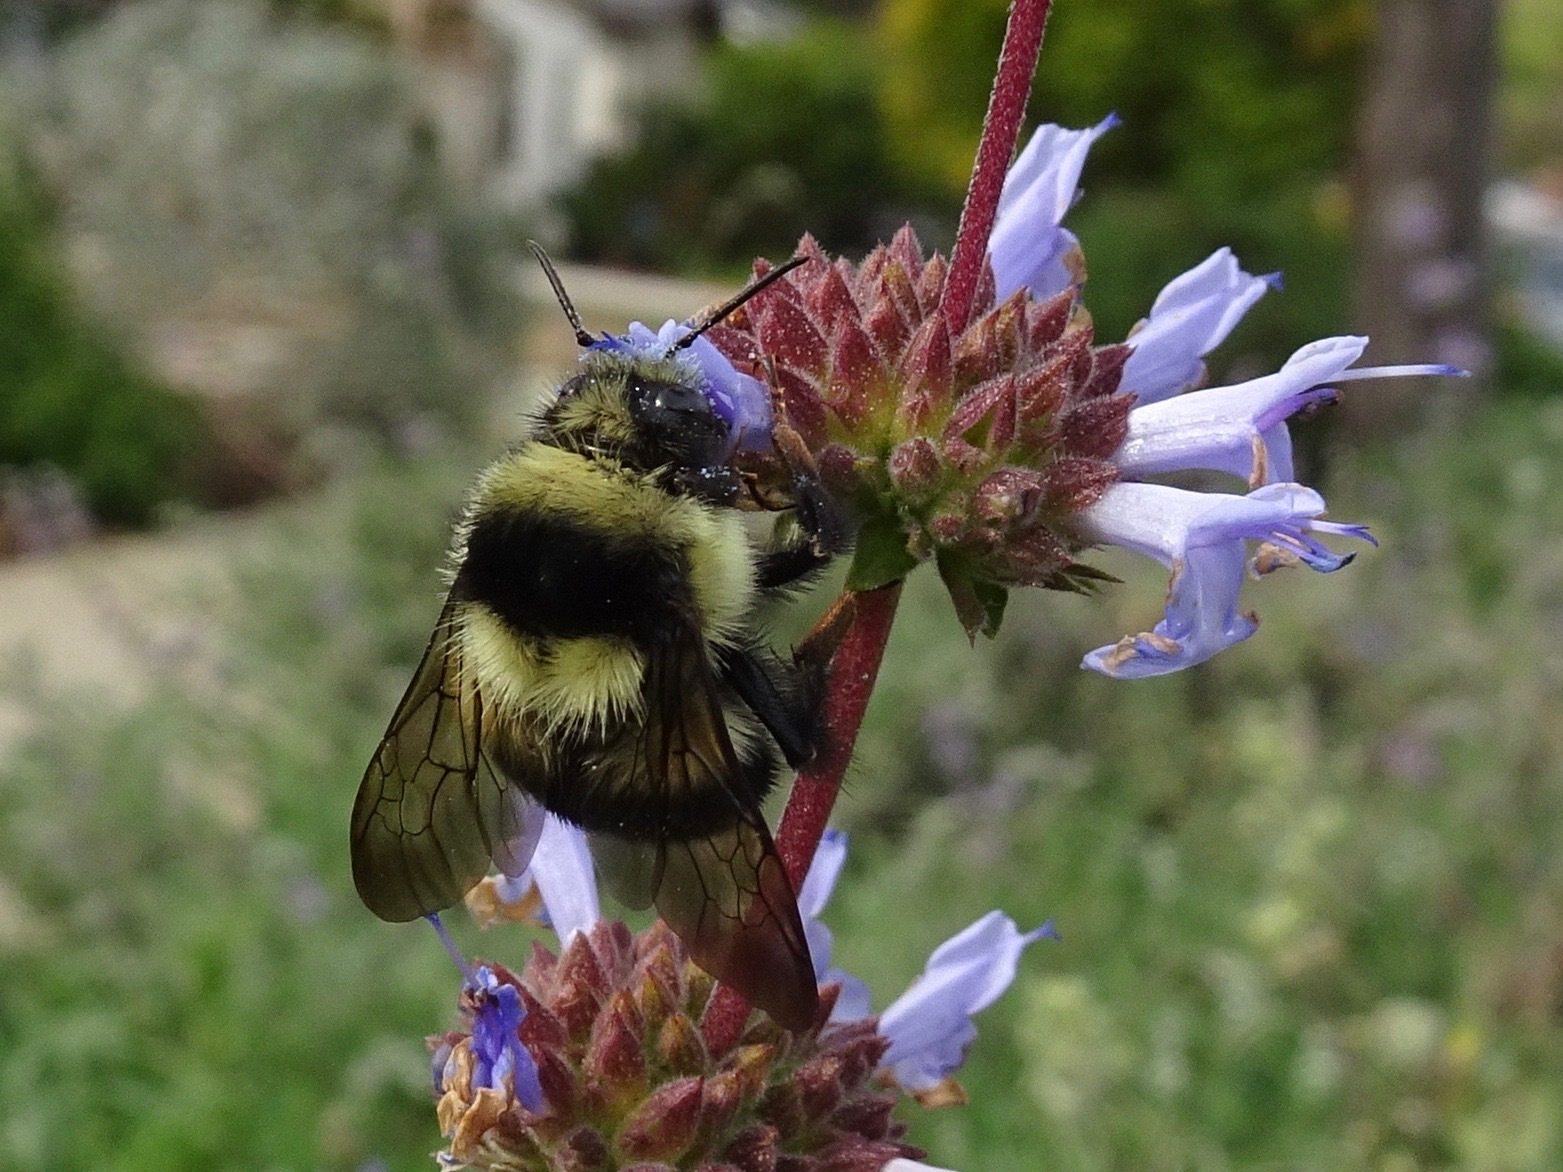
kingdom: Animalia
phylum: Arthropoda
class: Insecta
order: Hymenoptera
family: Apidae
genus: Bombus
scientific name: Bombus melanopygus
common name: Black tail bumble bee
